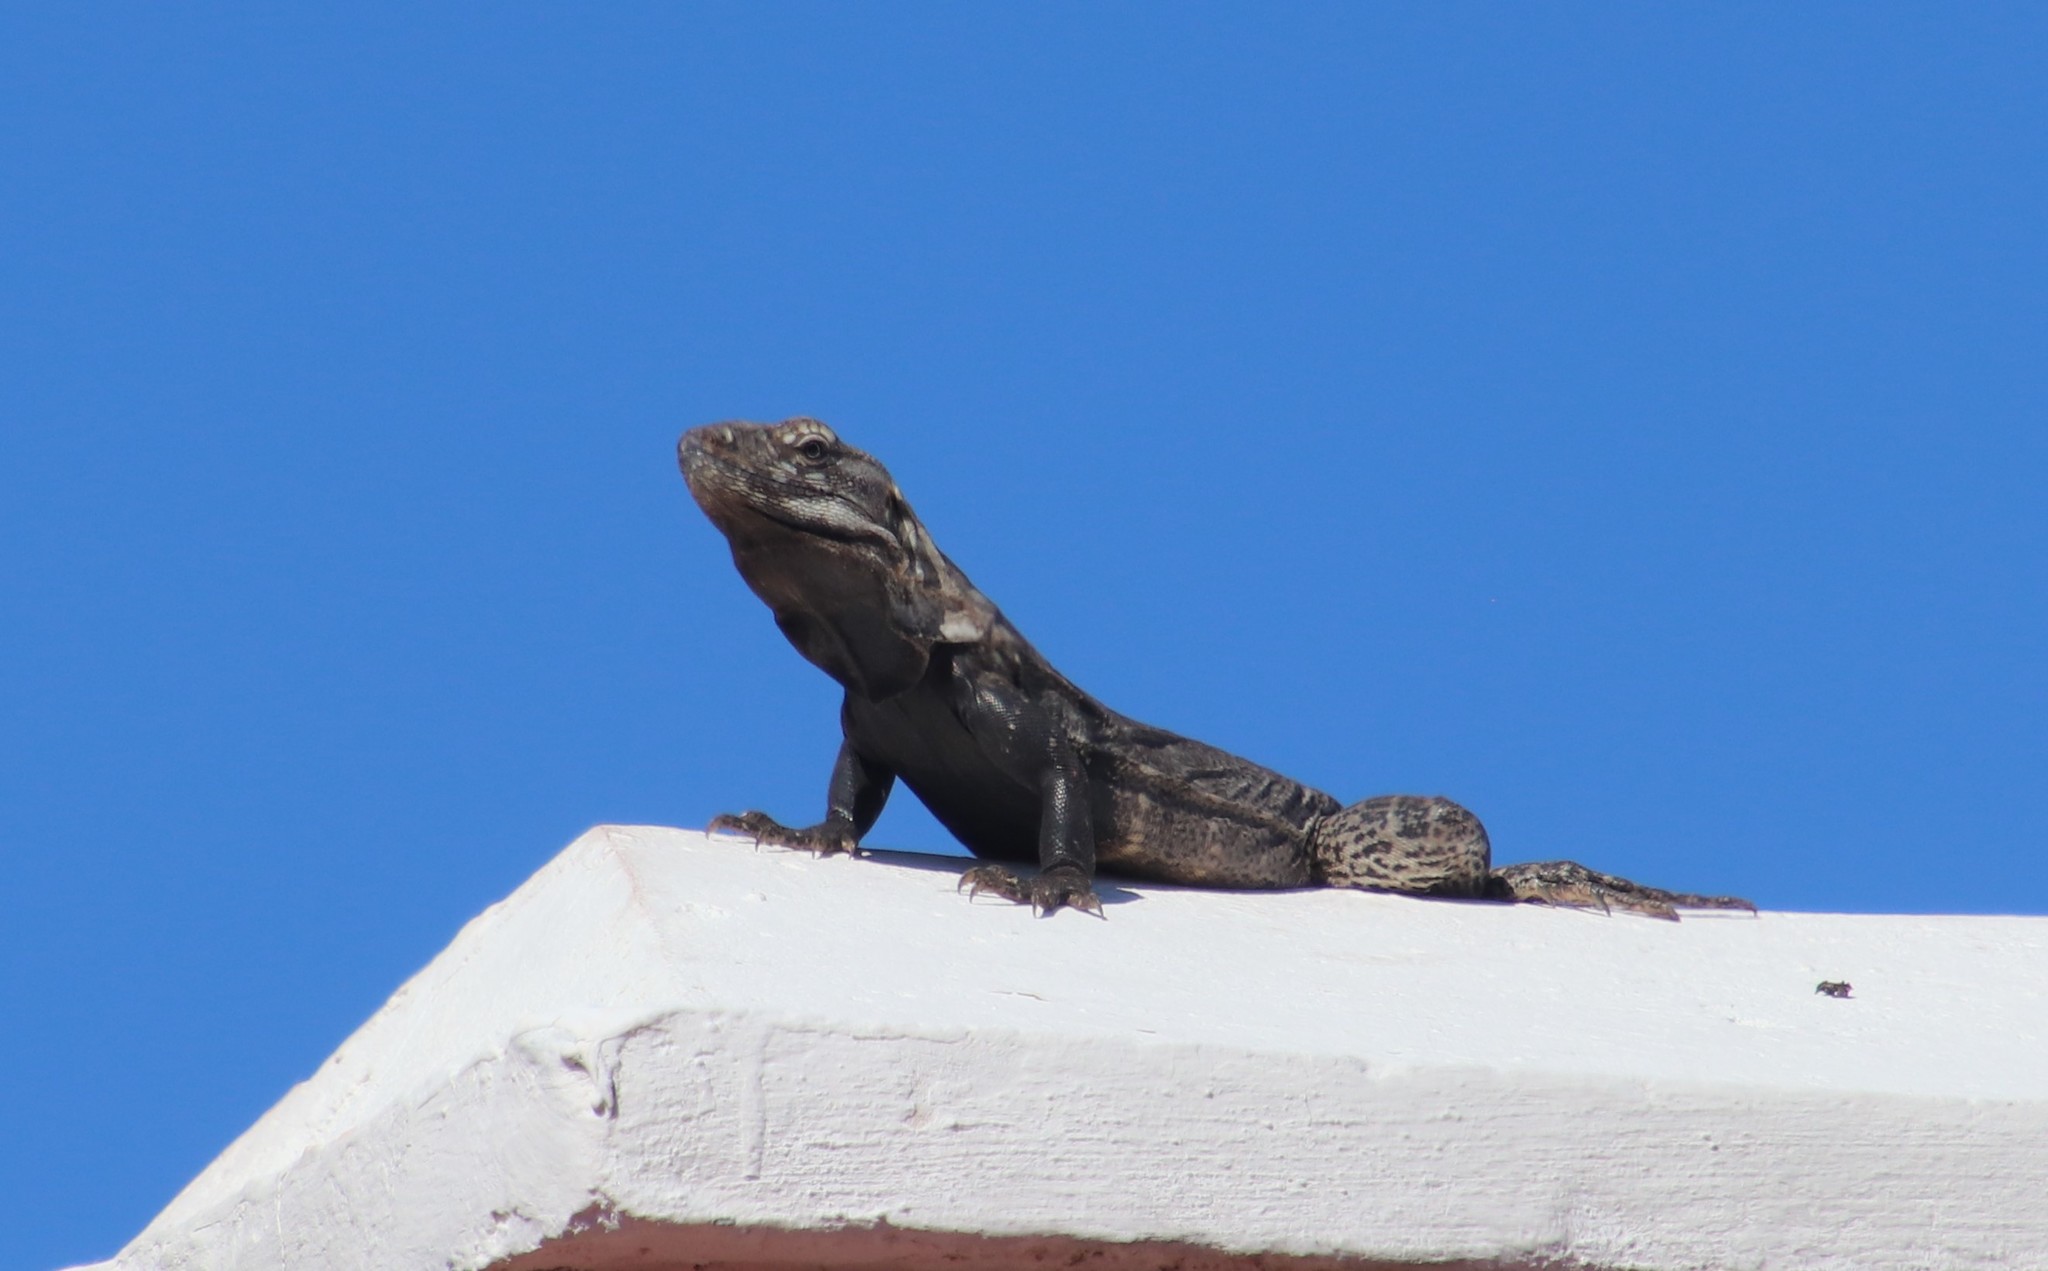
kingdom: Animalia
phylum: Chordata
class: Squamata
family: Iguanidae
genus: Ctenosaura
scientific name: Ctenosaura hemilopha
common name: Baja california spiny- tailed iguana
